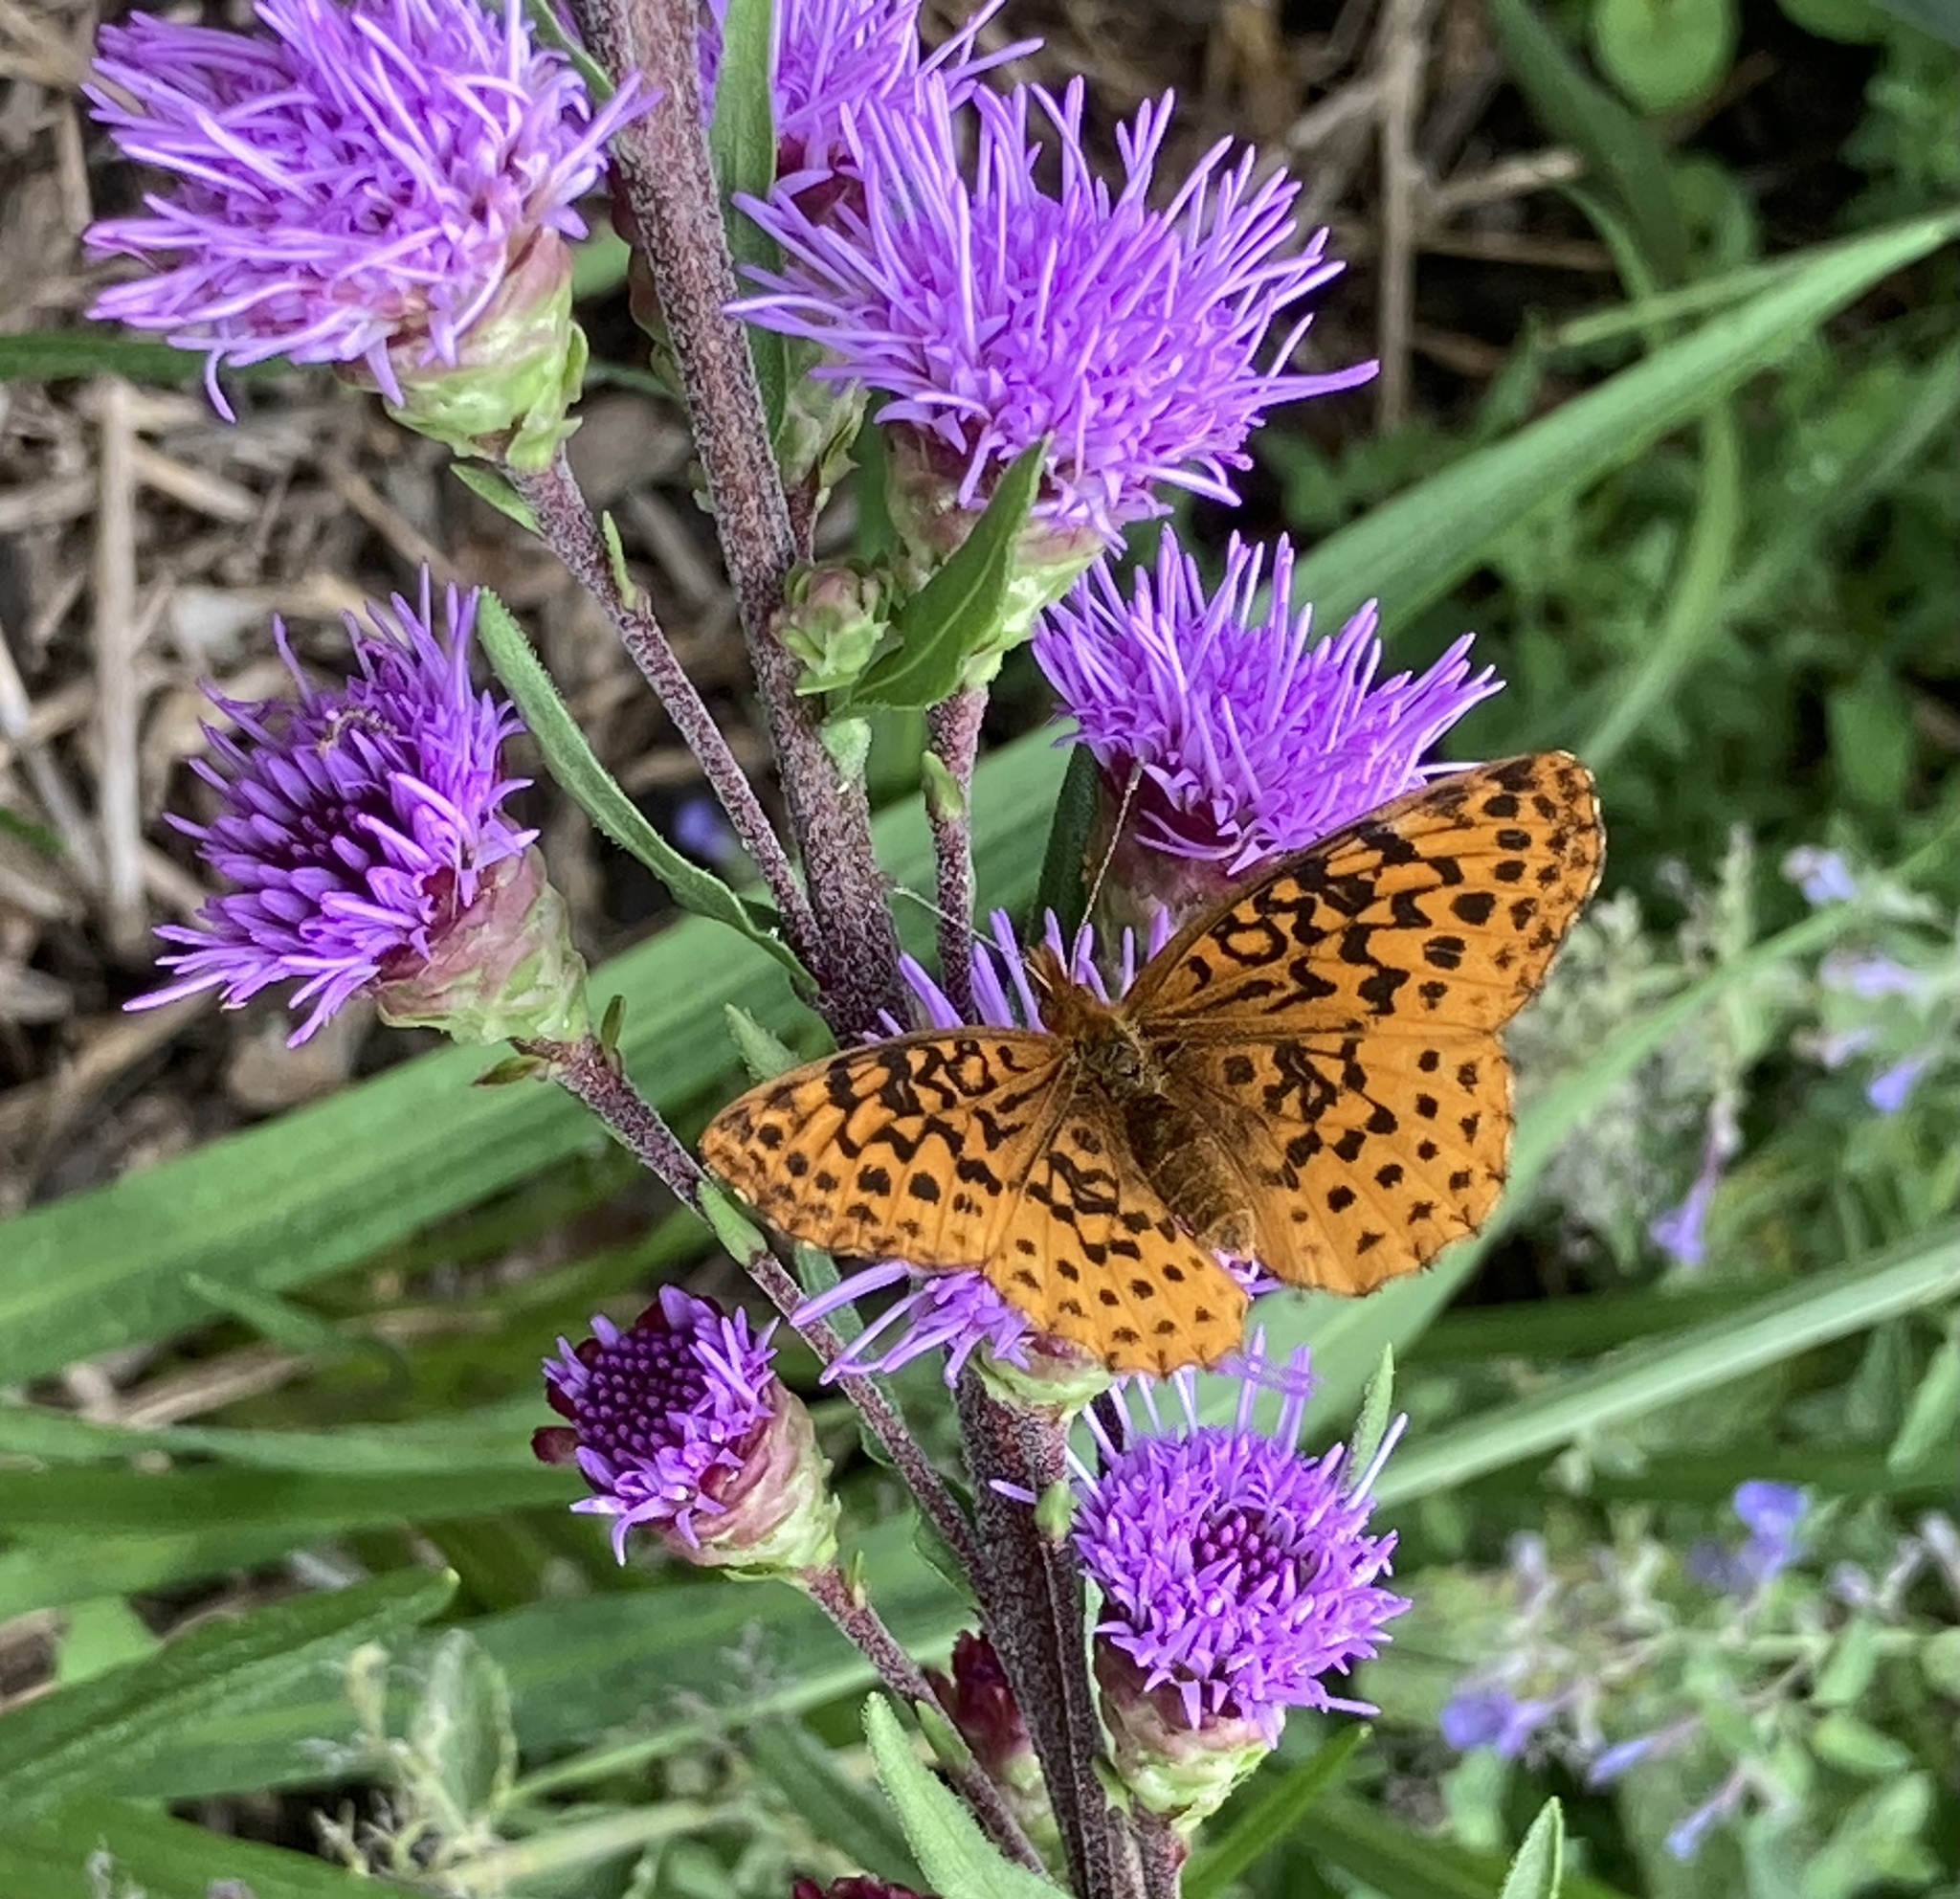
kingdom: Animalia
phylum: Arthropoda
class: Insecta
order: Lepidoptera
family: Nymphalidae
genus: Clossiana
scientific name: Clossiana toddi
